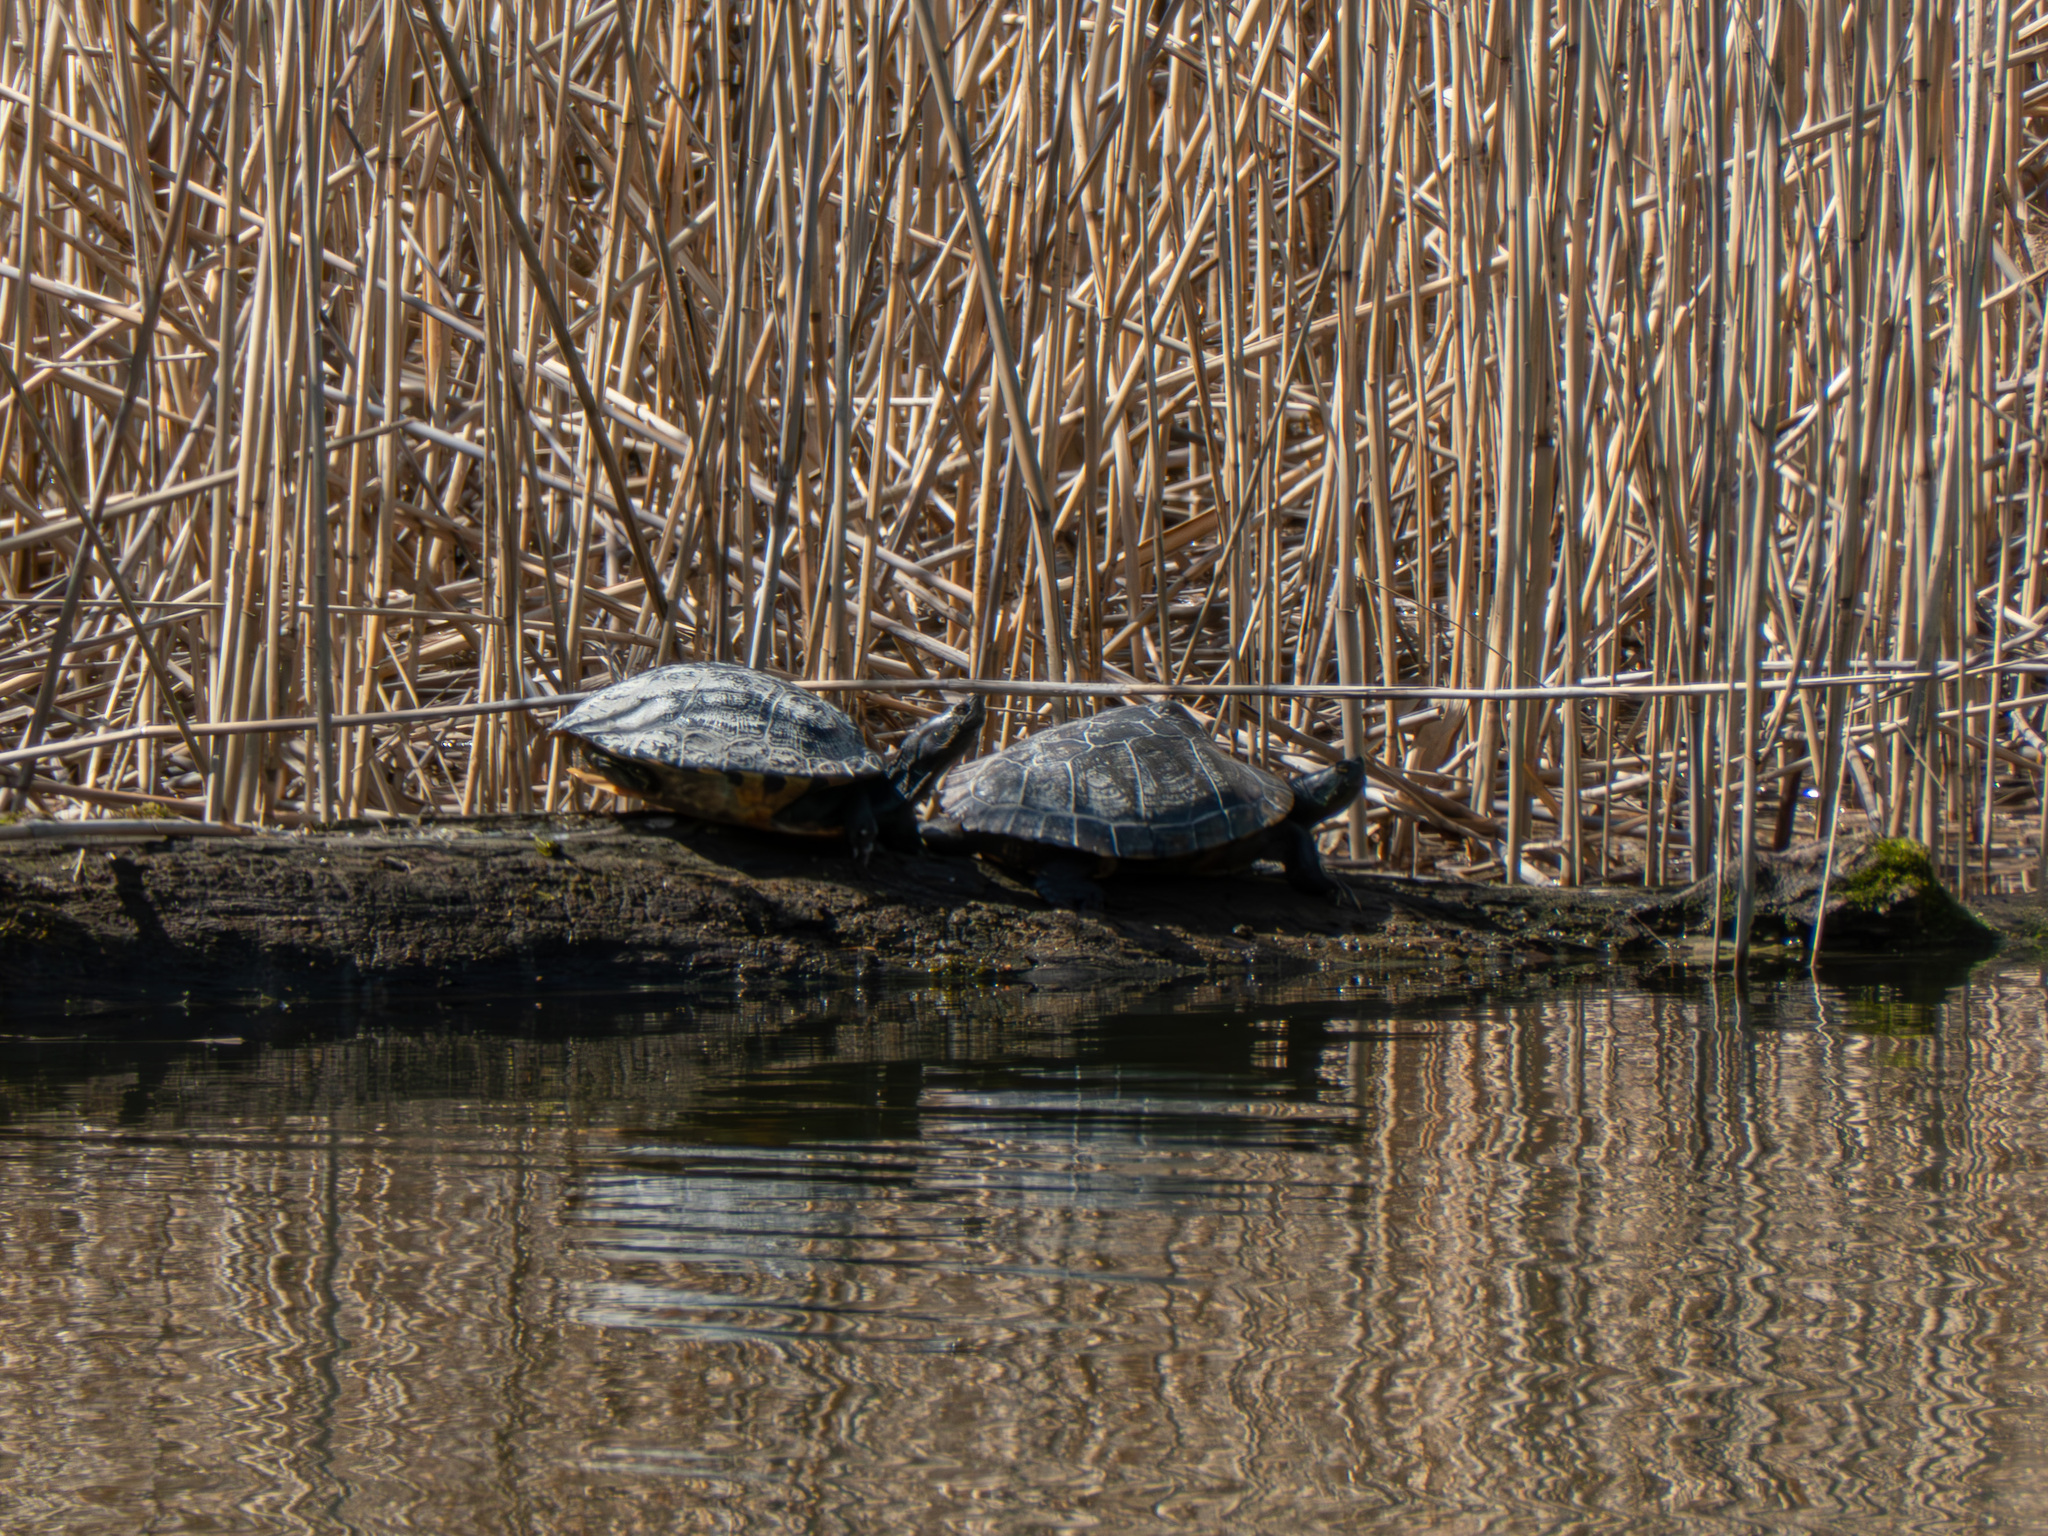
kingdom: Animalia
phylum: Chordata
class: Testudines
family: Emydidae
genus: Trachemys
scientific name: Trachemys scripta
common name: Slider
